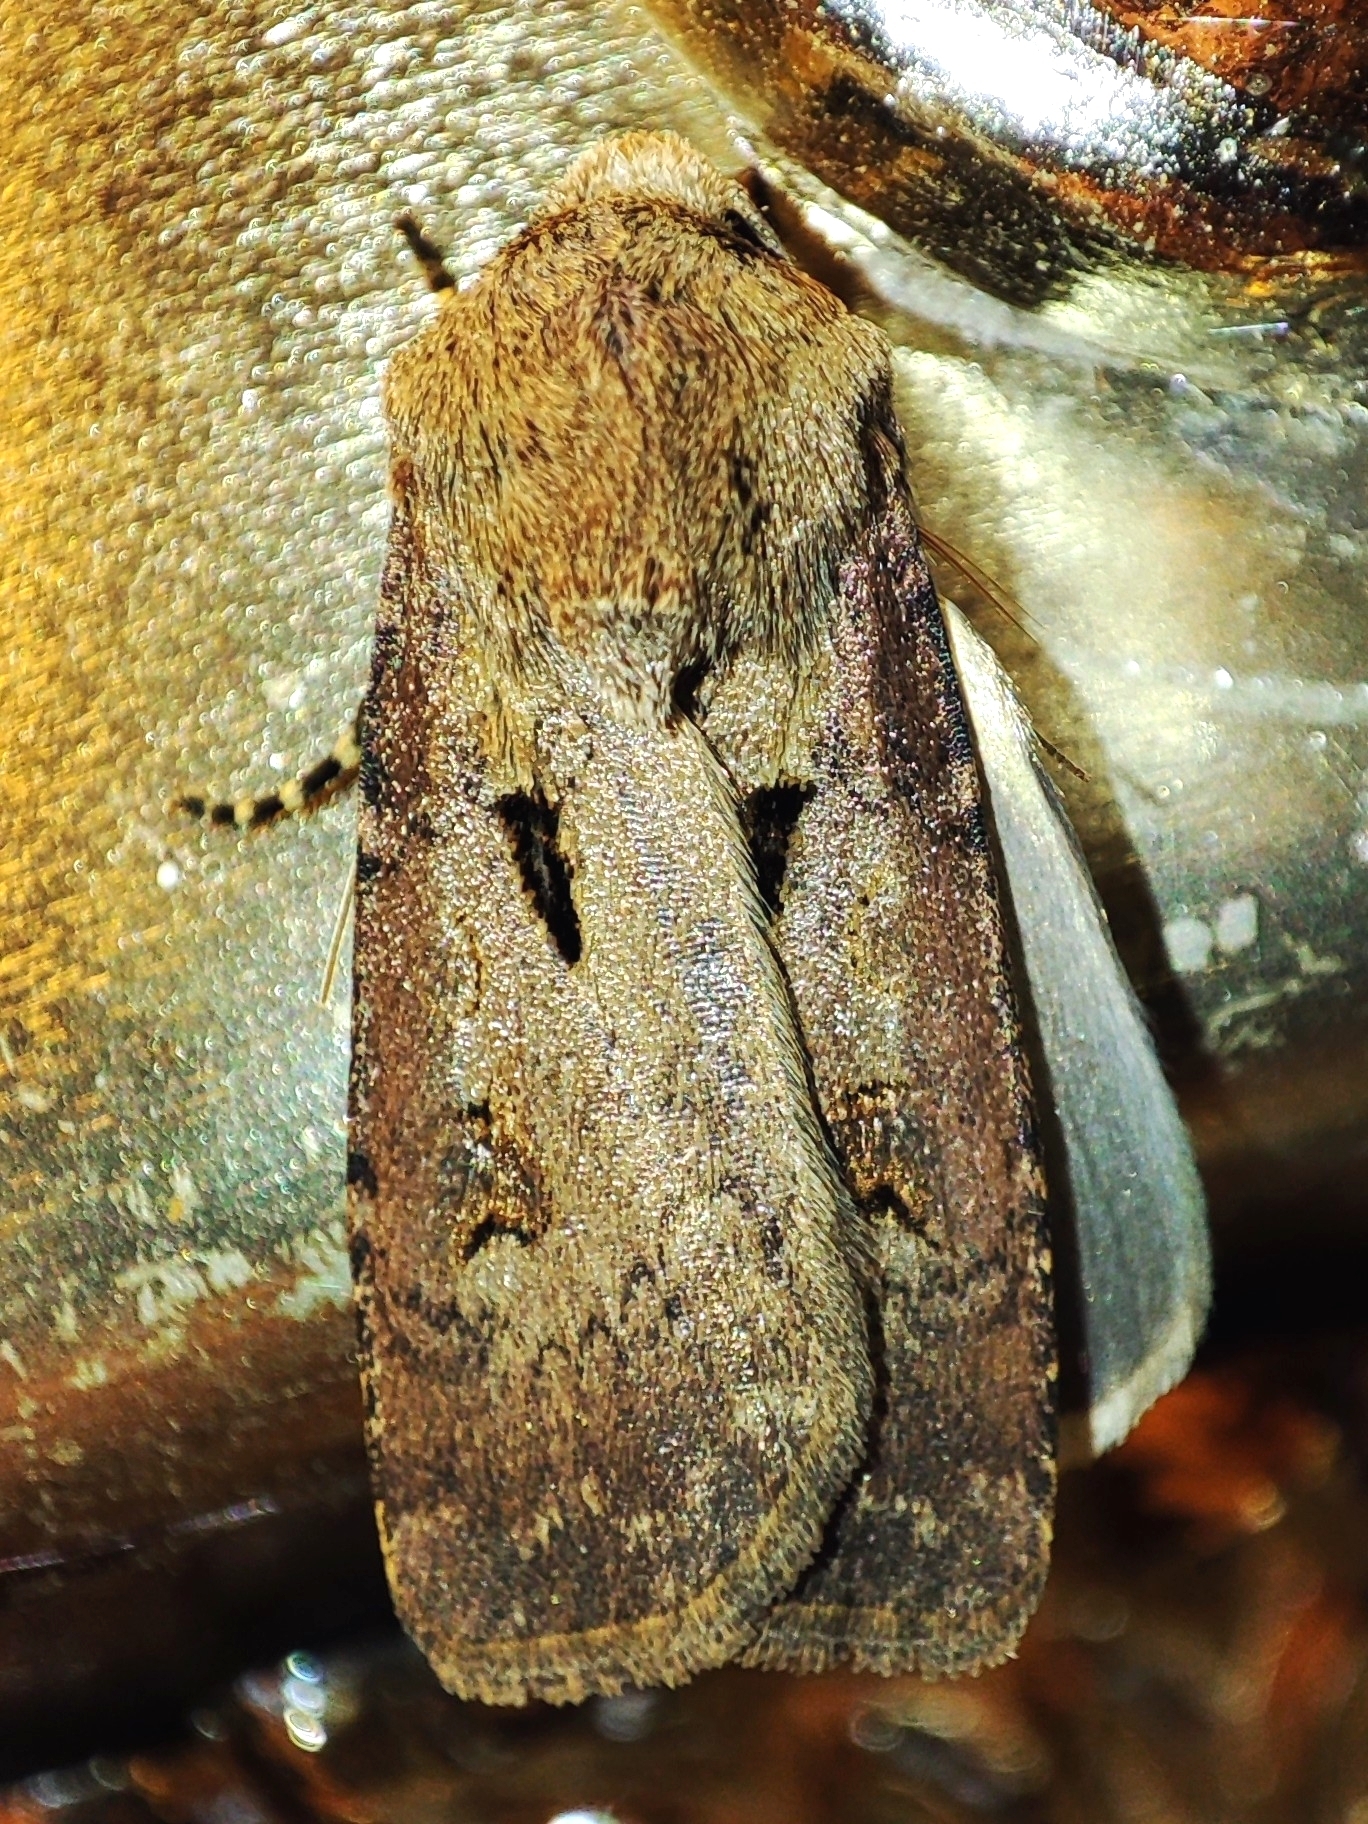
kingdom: Animalia
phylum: Arthropoda
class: Insecta
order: Lepidoptera
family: Noctuidae
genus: Agrotis
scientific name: Agrotis exclamationis
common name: Heart and dart
